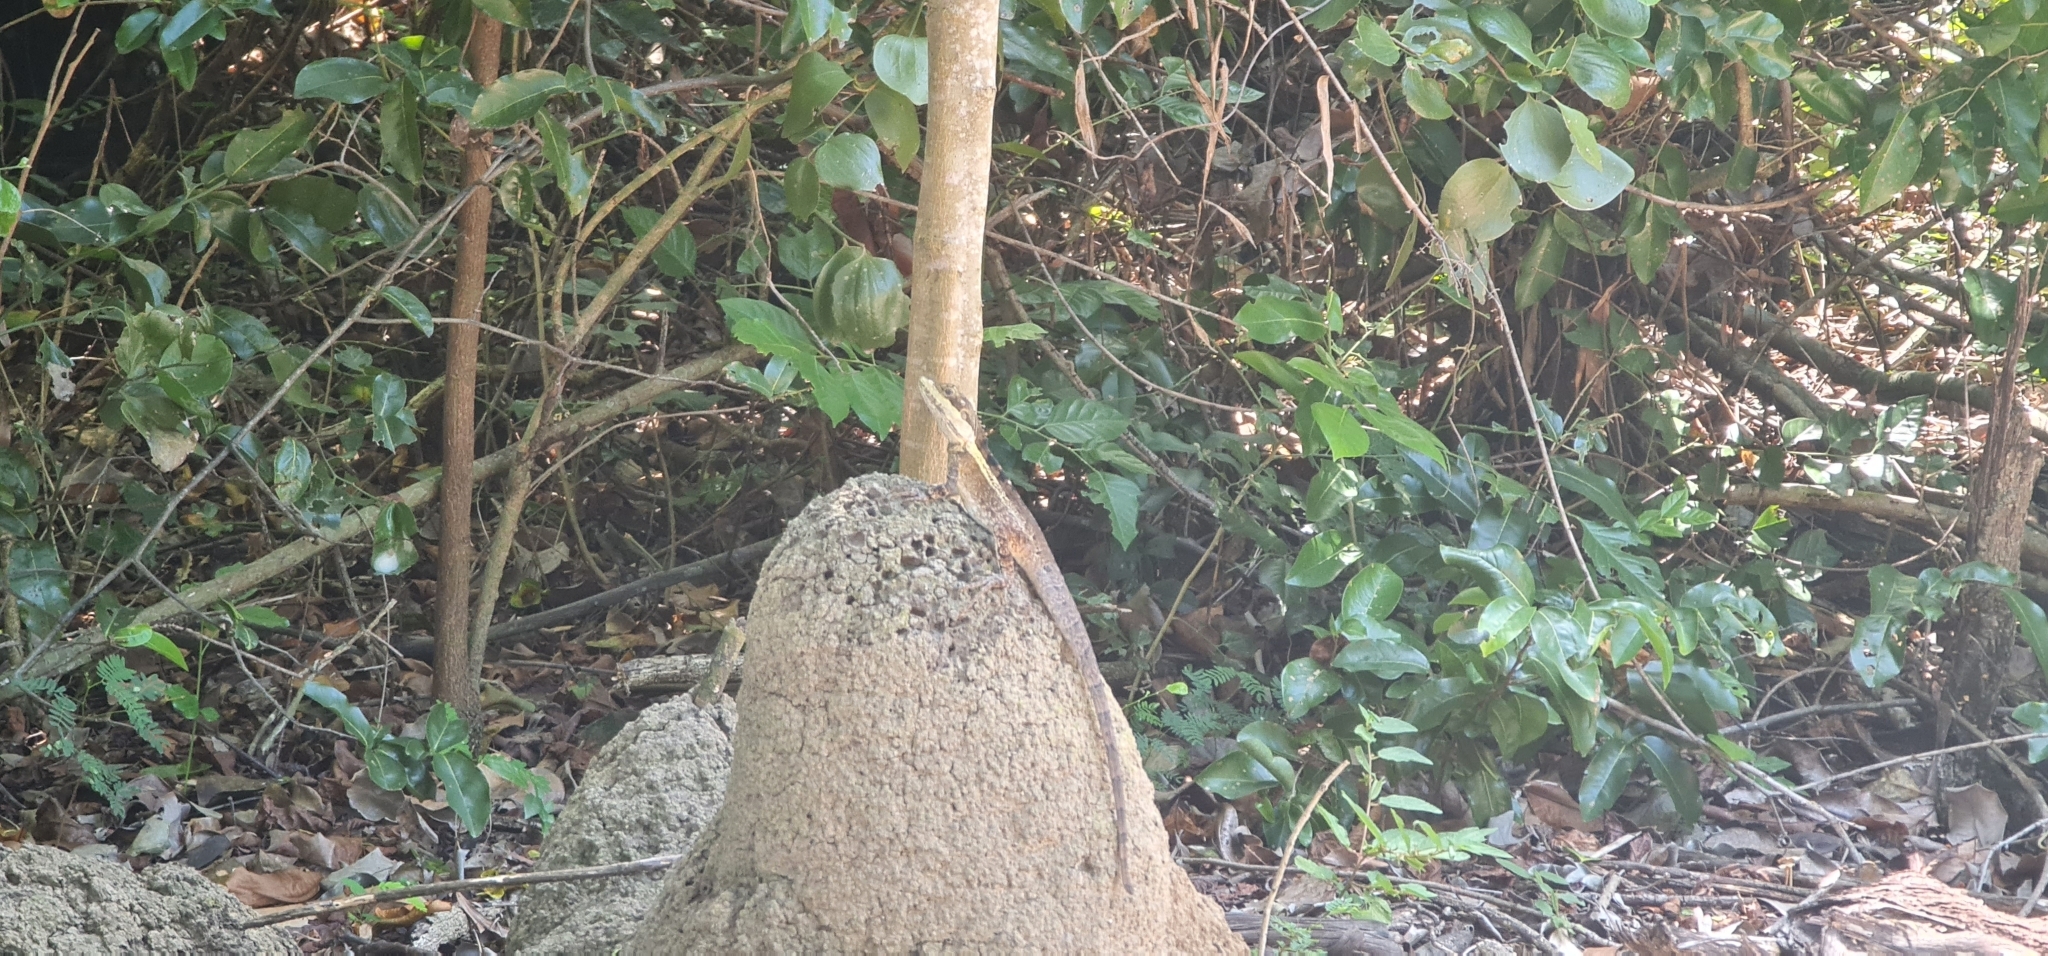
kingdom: Animalia
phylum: Chordata
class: Squamata
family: Agamidae
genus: Tropicagama
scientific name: Tropicagama temporalis
